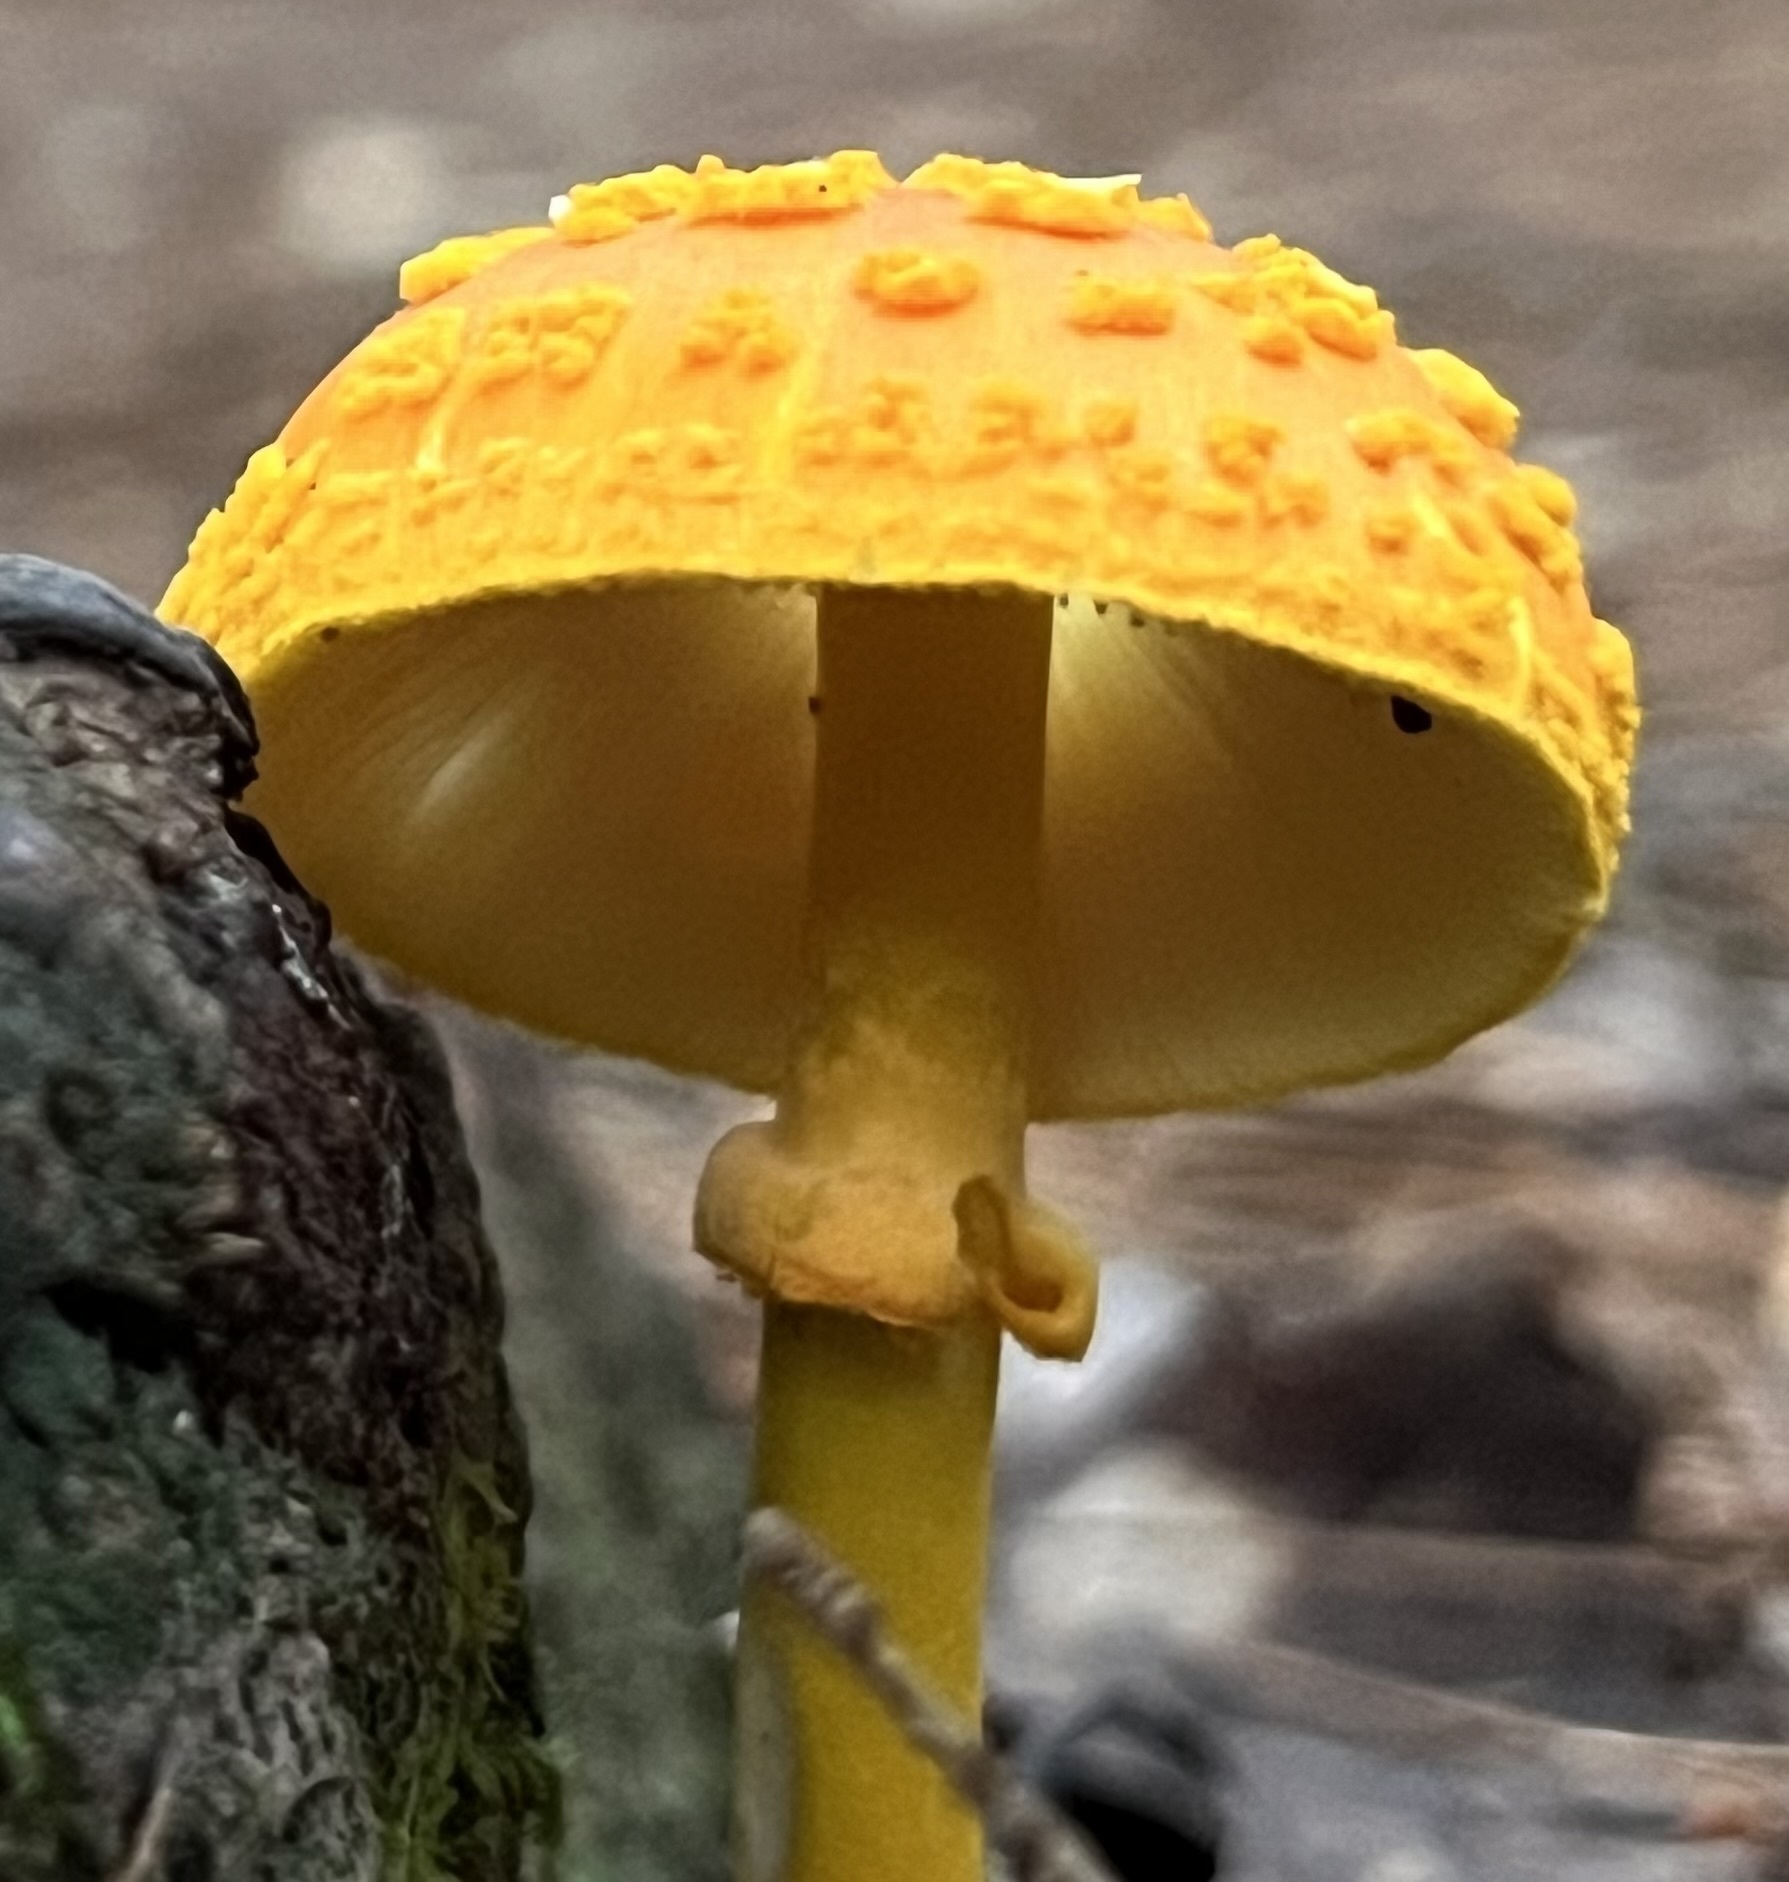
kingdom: Fungi
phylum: Basidiomycota
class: Agaricomycetes
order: Agaricales
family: Amanitaceae
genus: Amanita
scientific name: Amanita flavoconia
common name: Yellow patches
